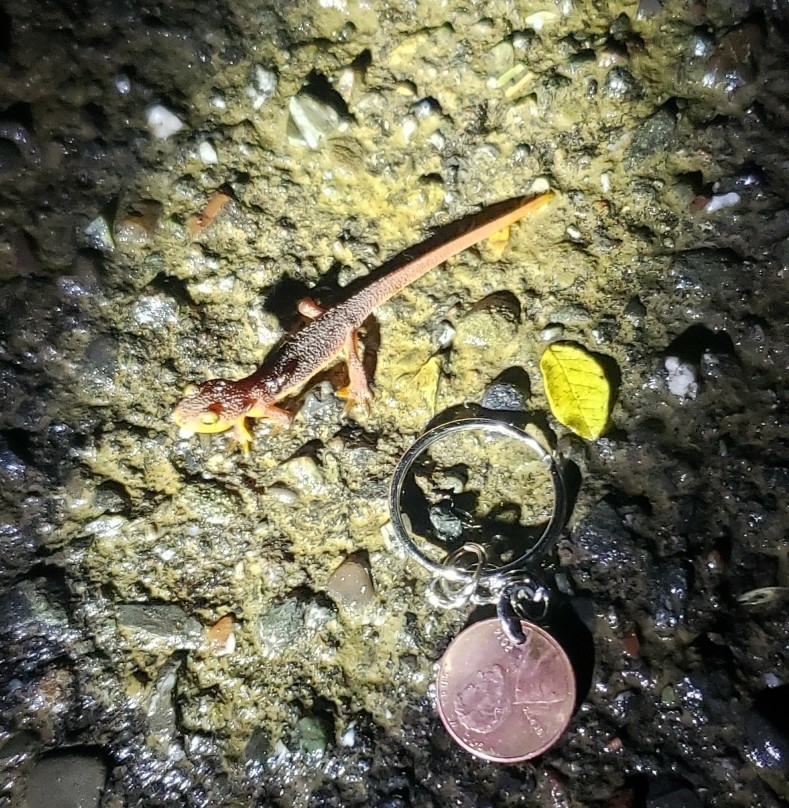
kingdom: Animalia
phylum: Chordata
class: Amphibia
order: Caudata
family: Salamandridae
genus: Taricha
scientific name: Taricha torosa
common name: California newt
